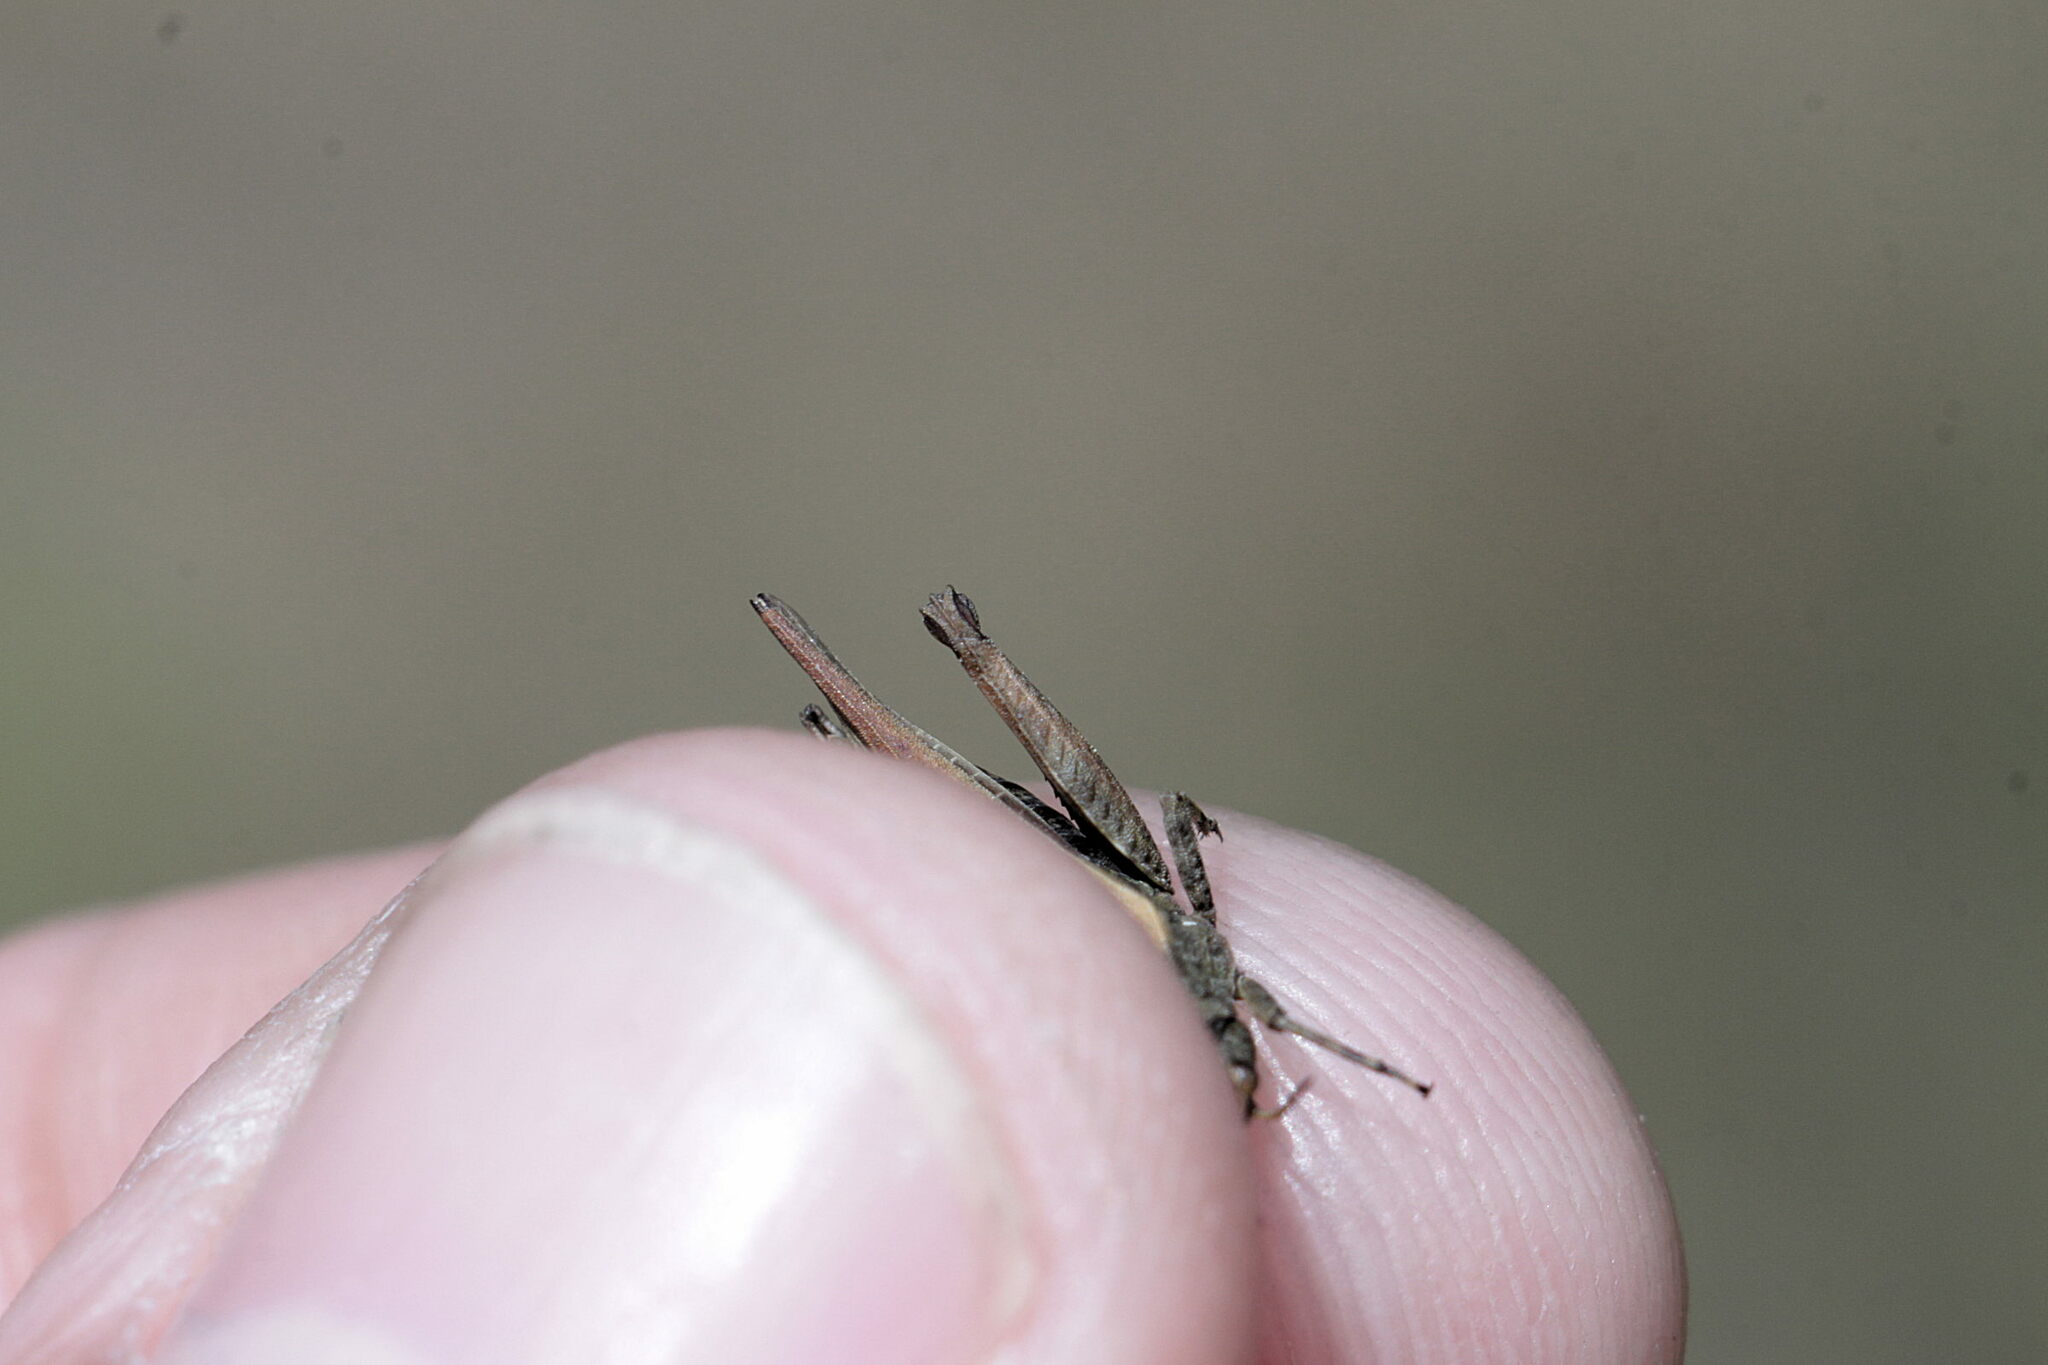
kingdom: Animalia
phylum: Arthropoda
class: Insecta
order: Orthoptera
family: Tetrigidae
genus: Tetrix
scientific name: Tetrix undulata
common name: Common groundhopper
